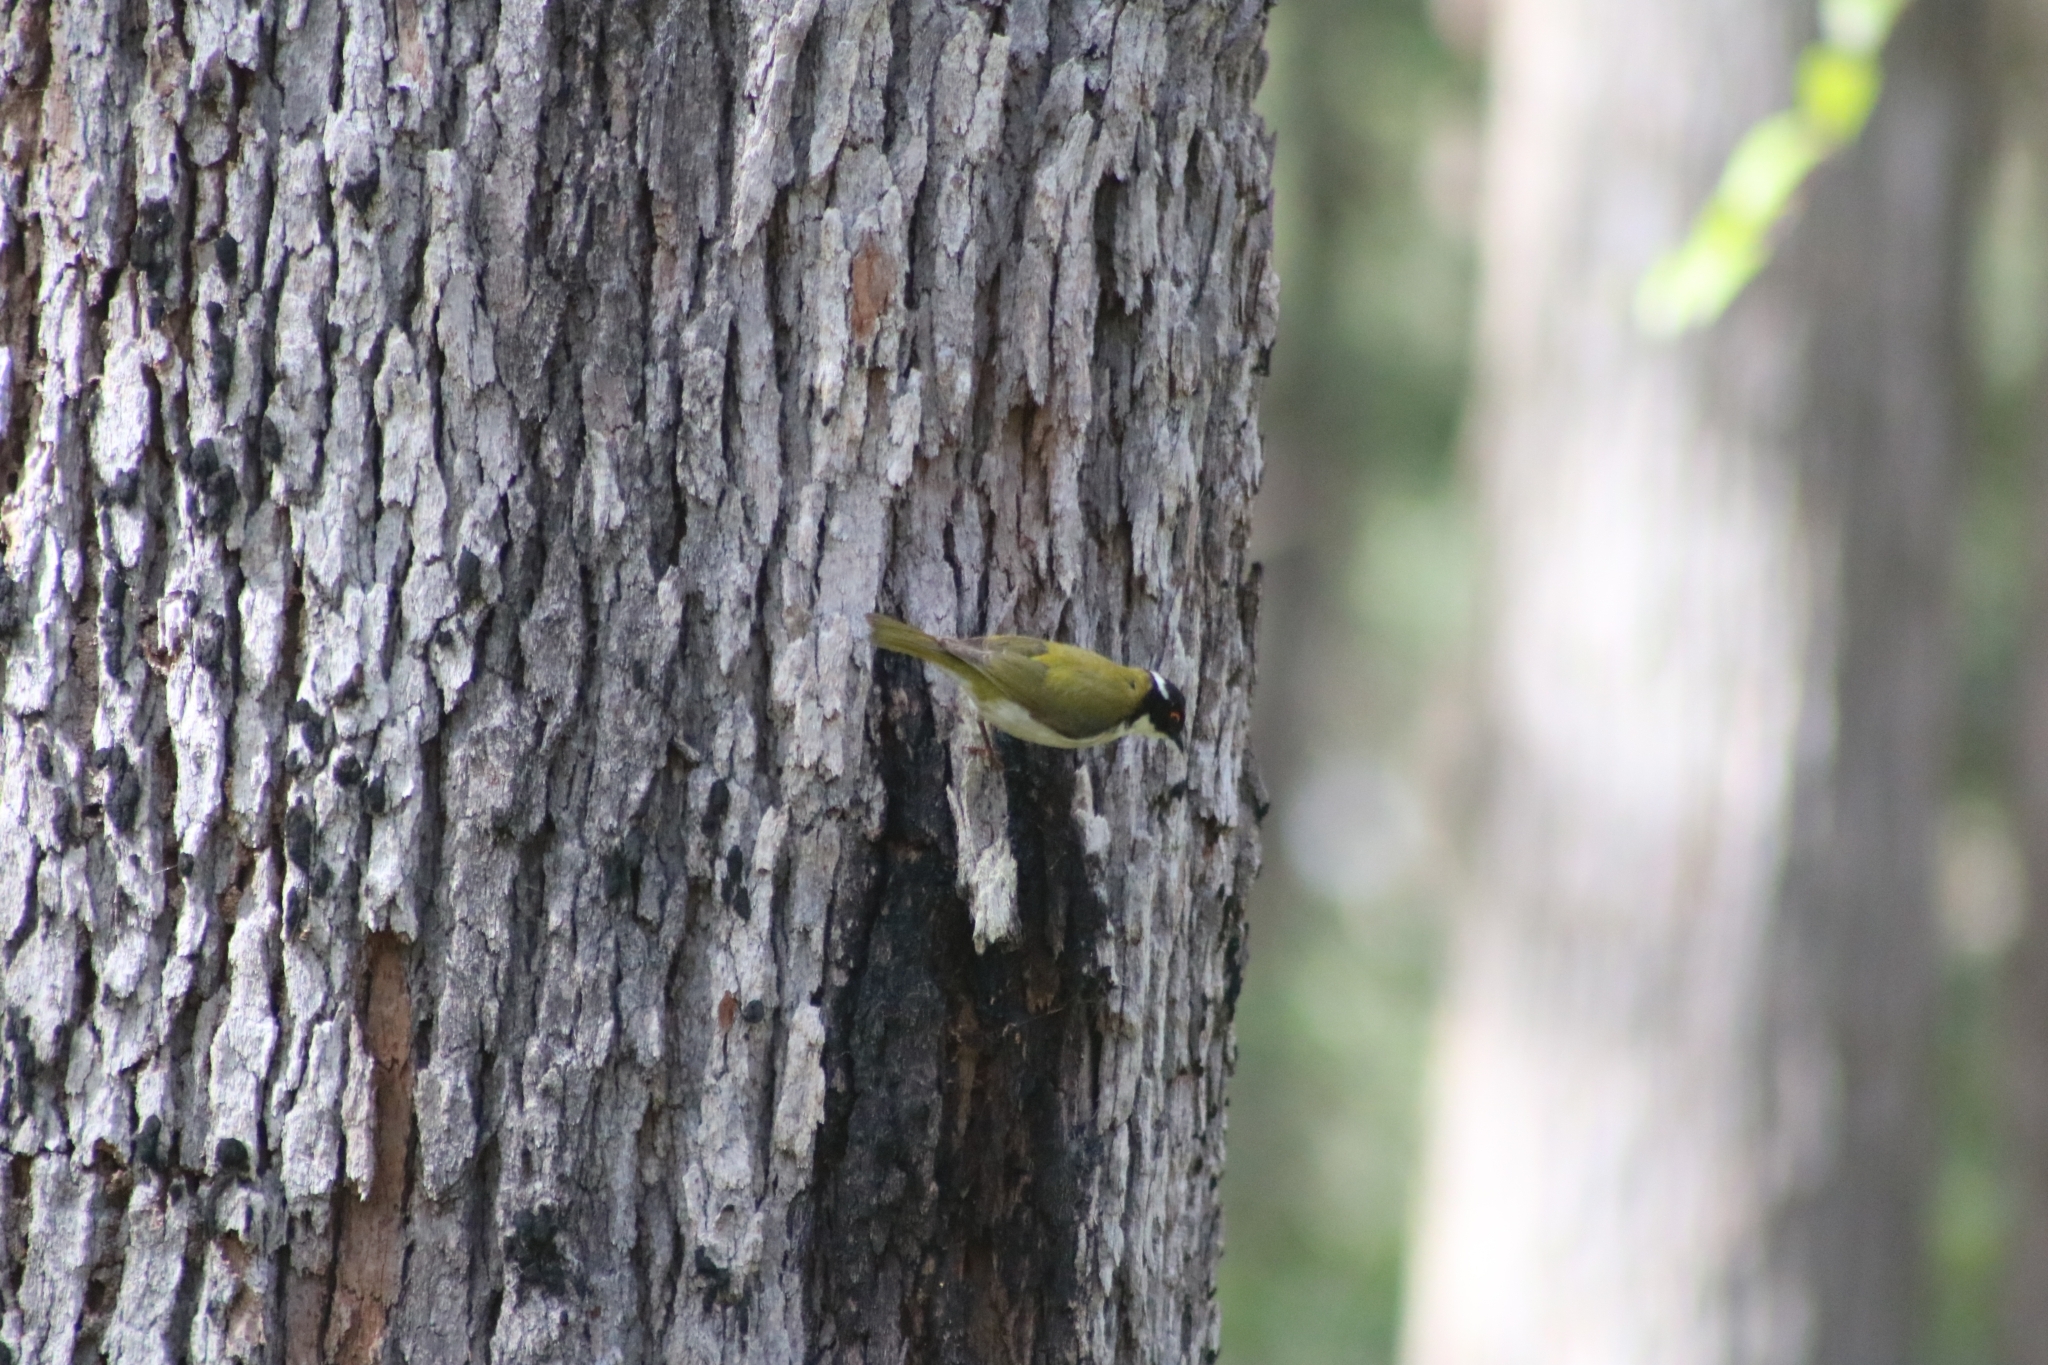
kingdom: Animalia
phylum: Chordata
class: Aves
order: Passeriformes
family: Meliphagidae
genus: Melithreptus
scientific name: Melithreptus lunatus
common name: White-naped honeyeater
